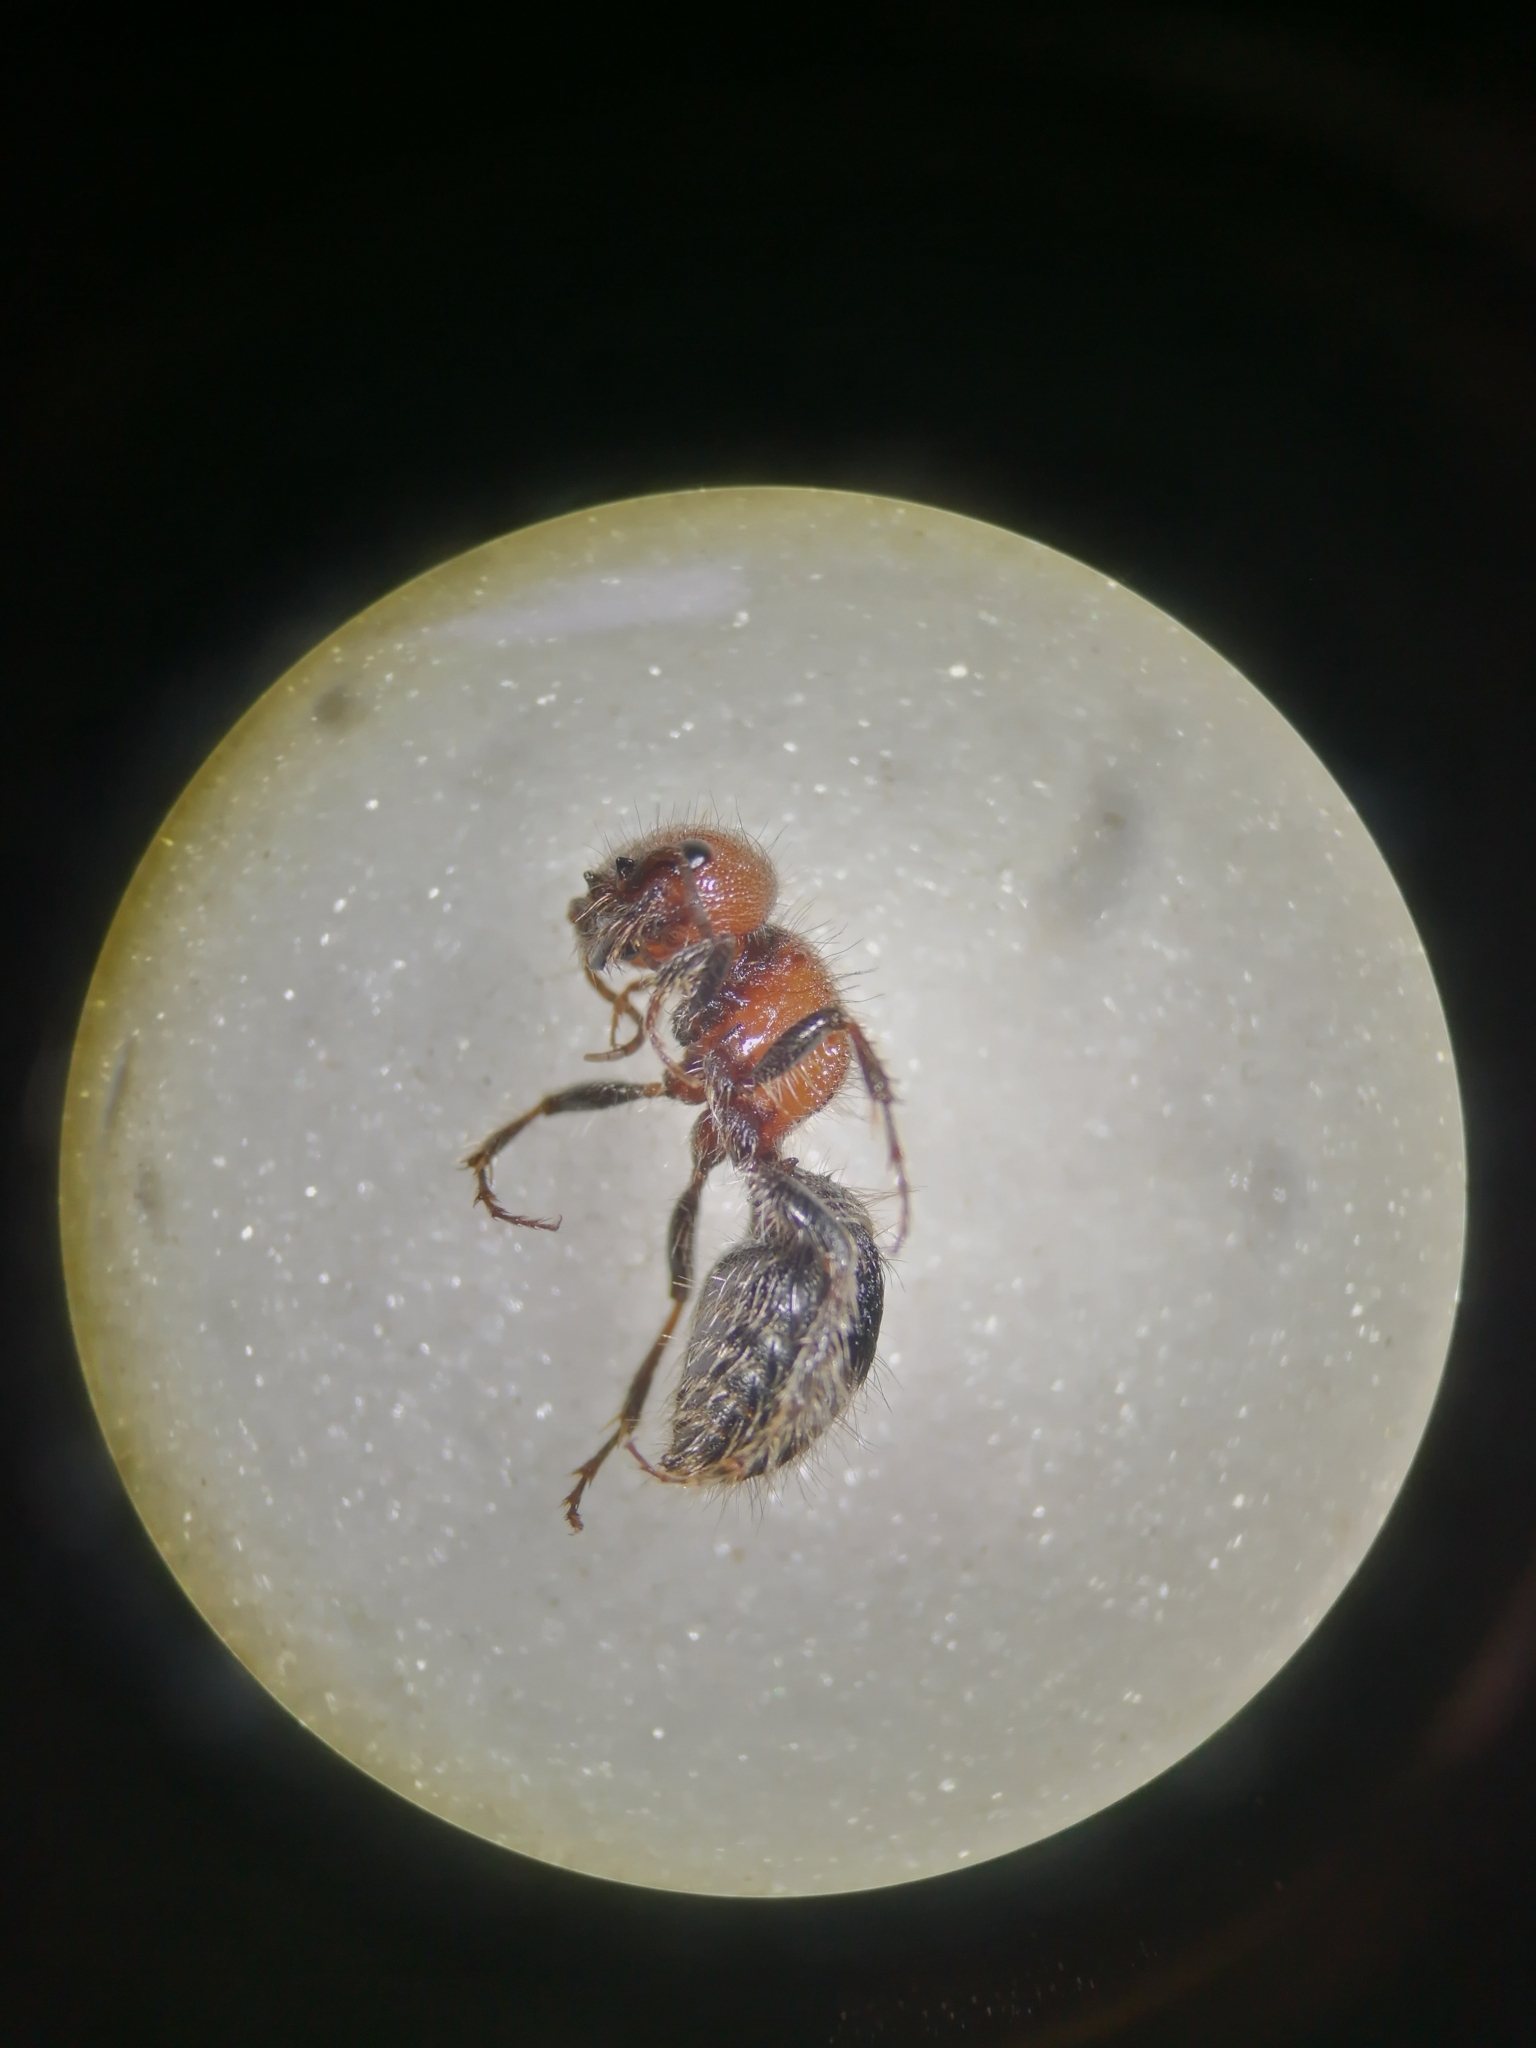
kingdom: Animalia
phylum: Arthropoda
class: Insecta
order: Hymenoptera
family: Mutillidae
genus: Myrmilla
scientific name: Myrmilla erythrocephala
